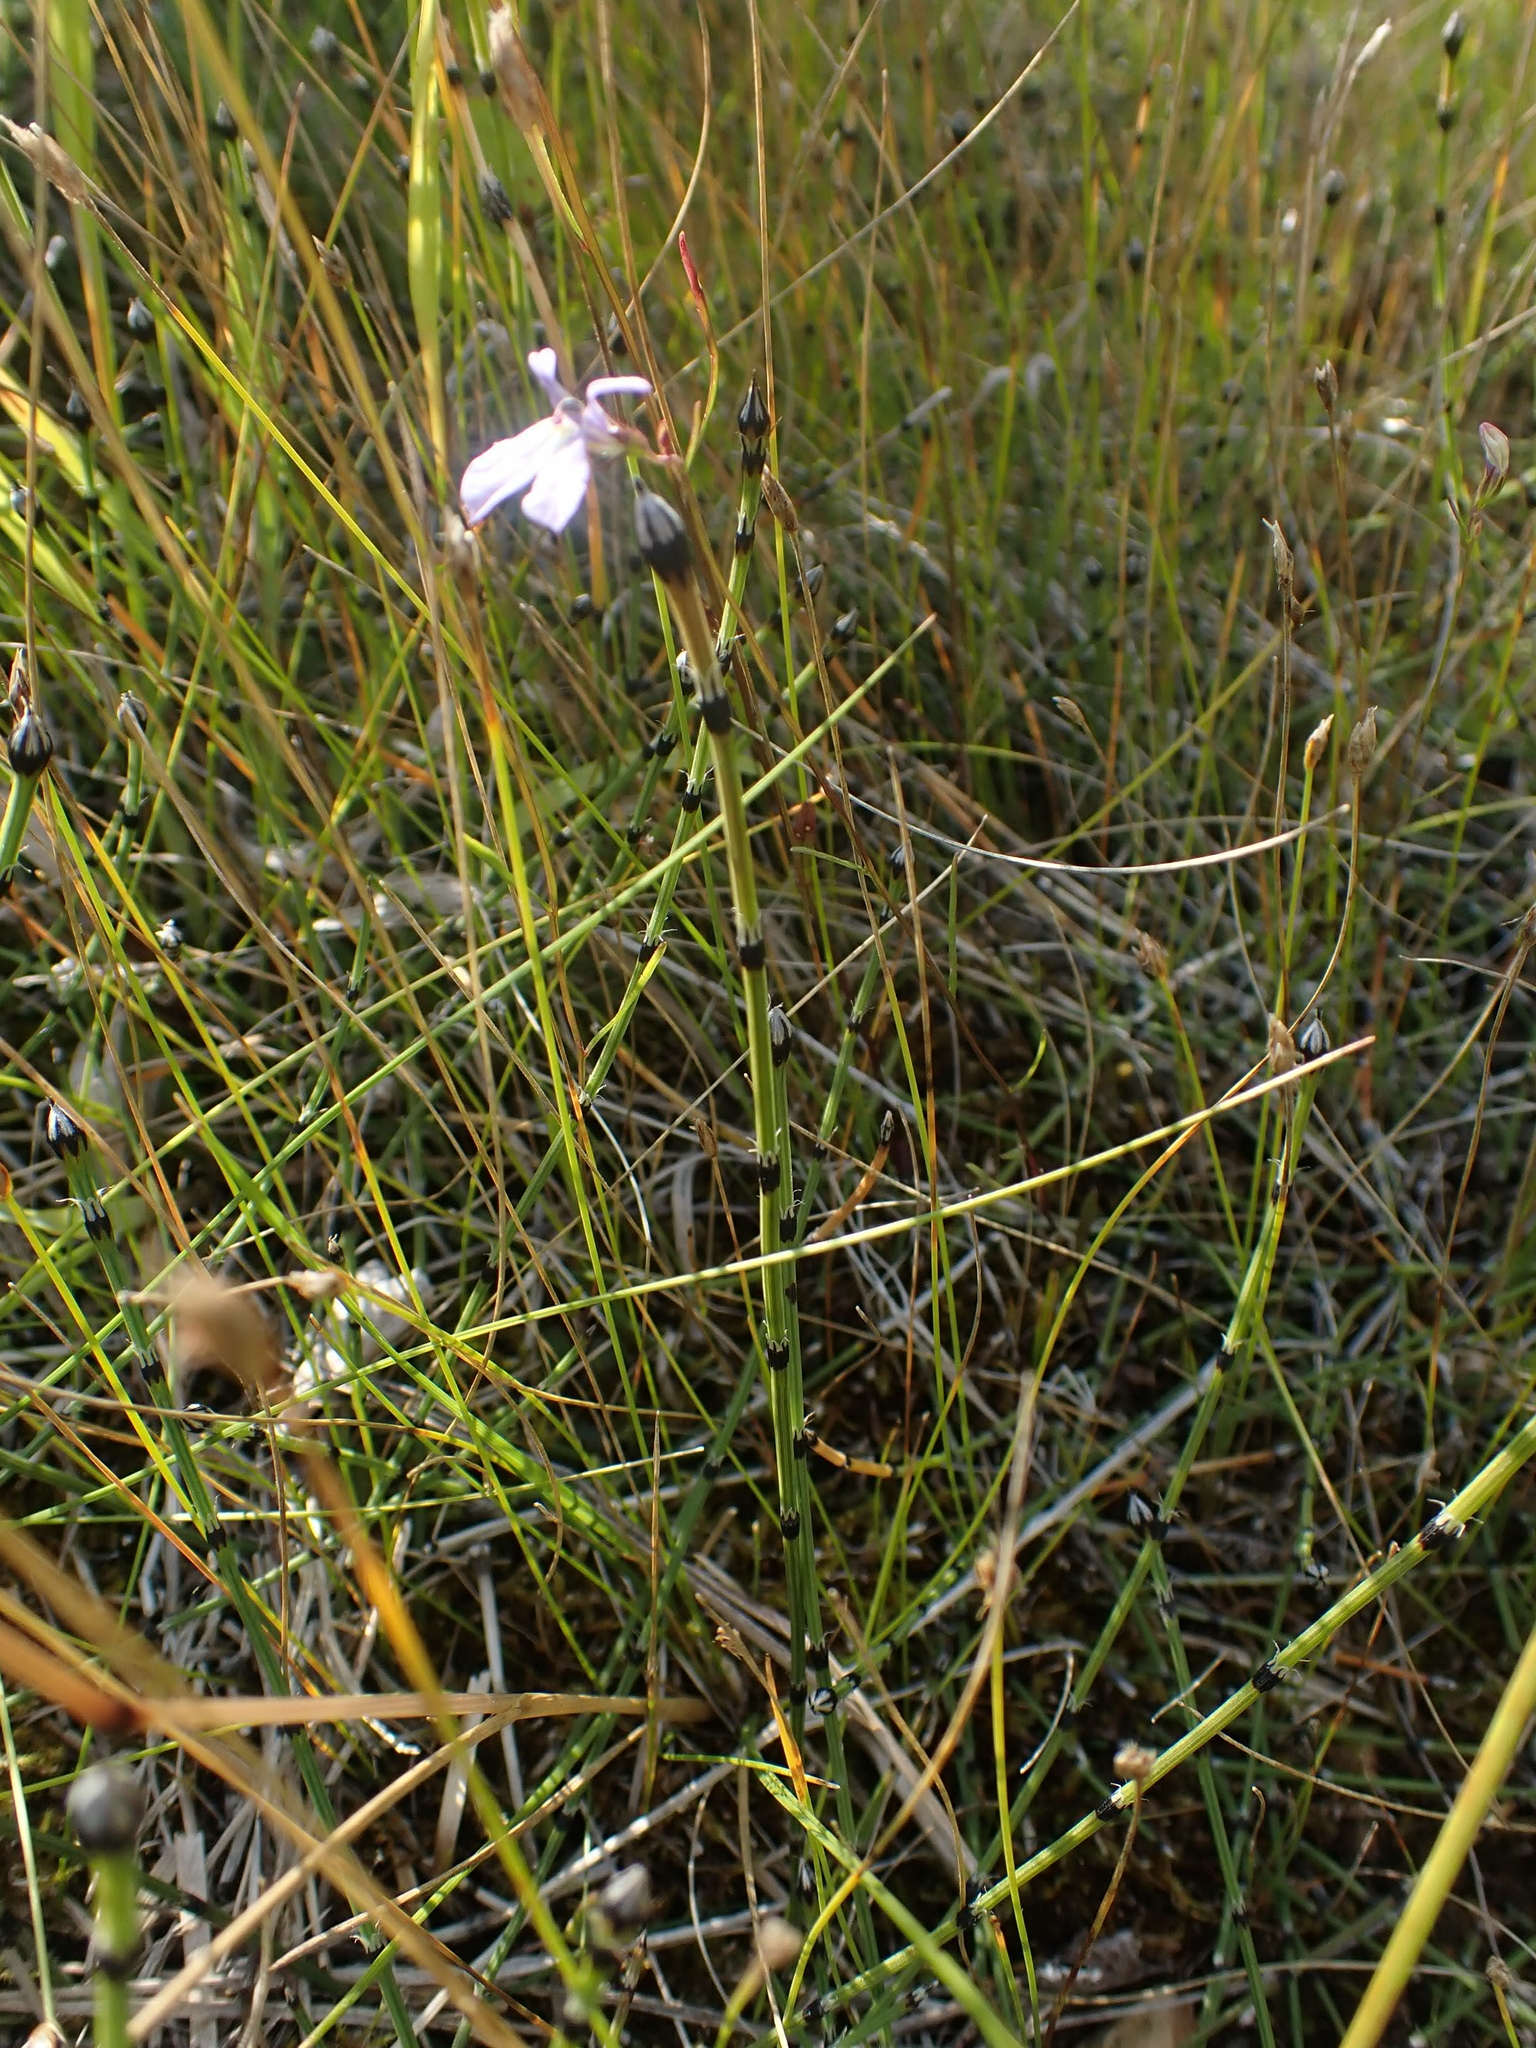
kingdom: Plantae
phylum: Tracheophyta
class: Polypodiopsida
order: Equisetales
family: Equisetaceae
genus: Equisetum
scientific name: Equisetum variegatum
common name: Variegated horsetail
